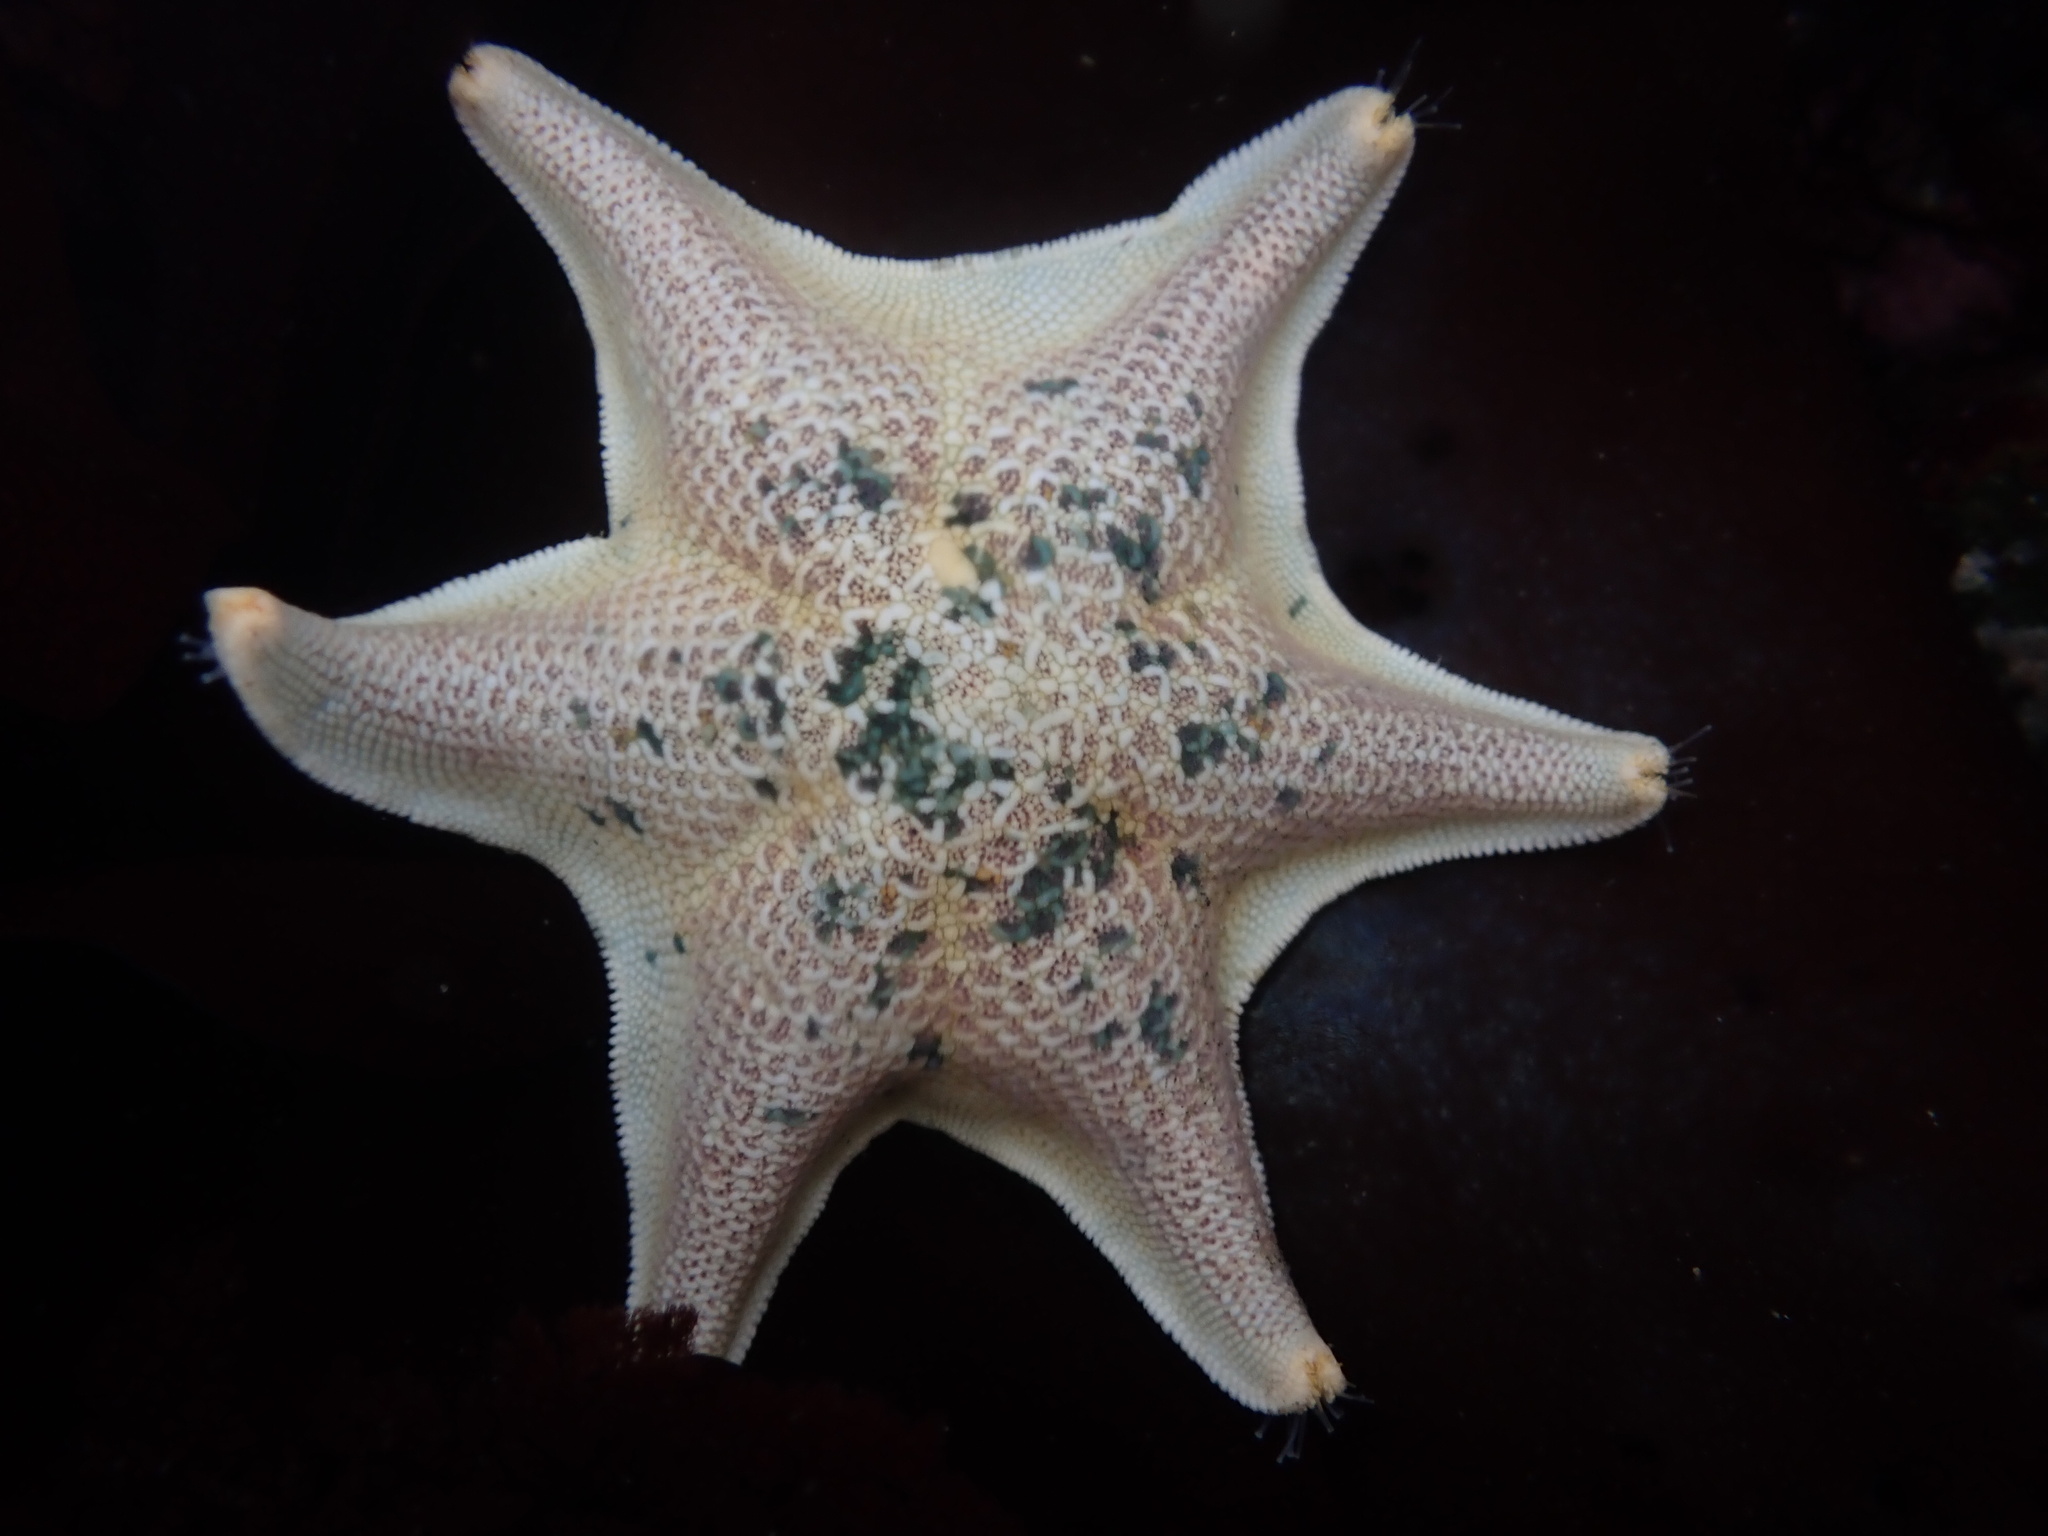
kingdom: Animalia
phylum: Echinodermata
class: Asteroidea
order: Valvatida
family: Asterinidae
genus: Patiria
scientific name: Patiria miniata
